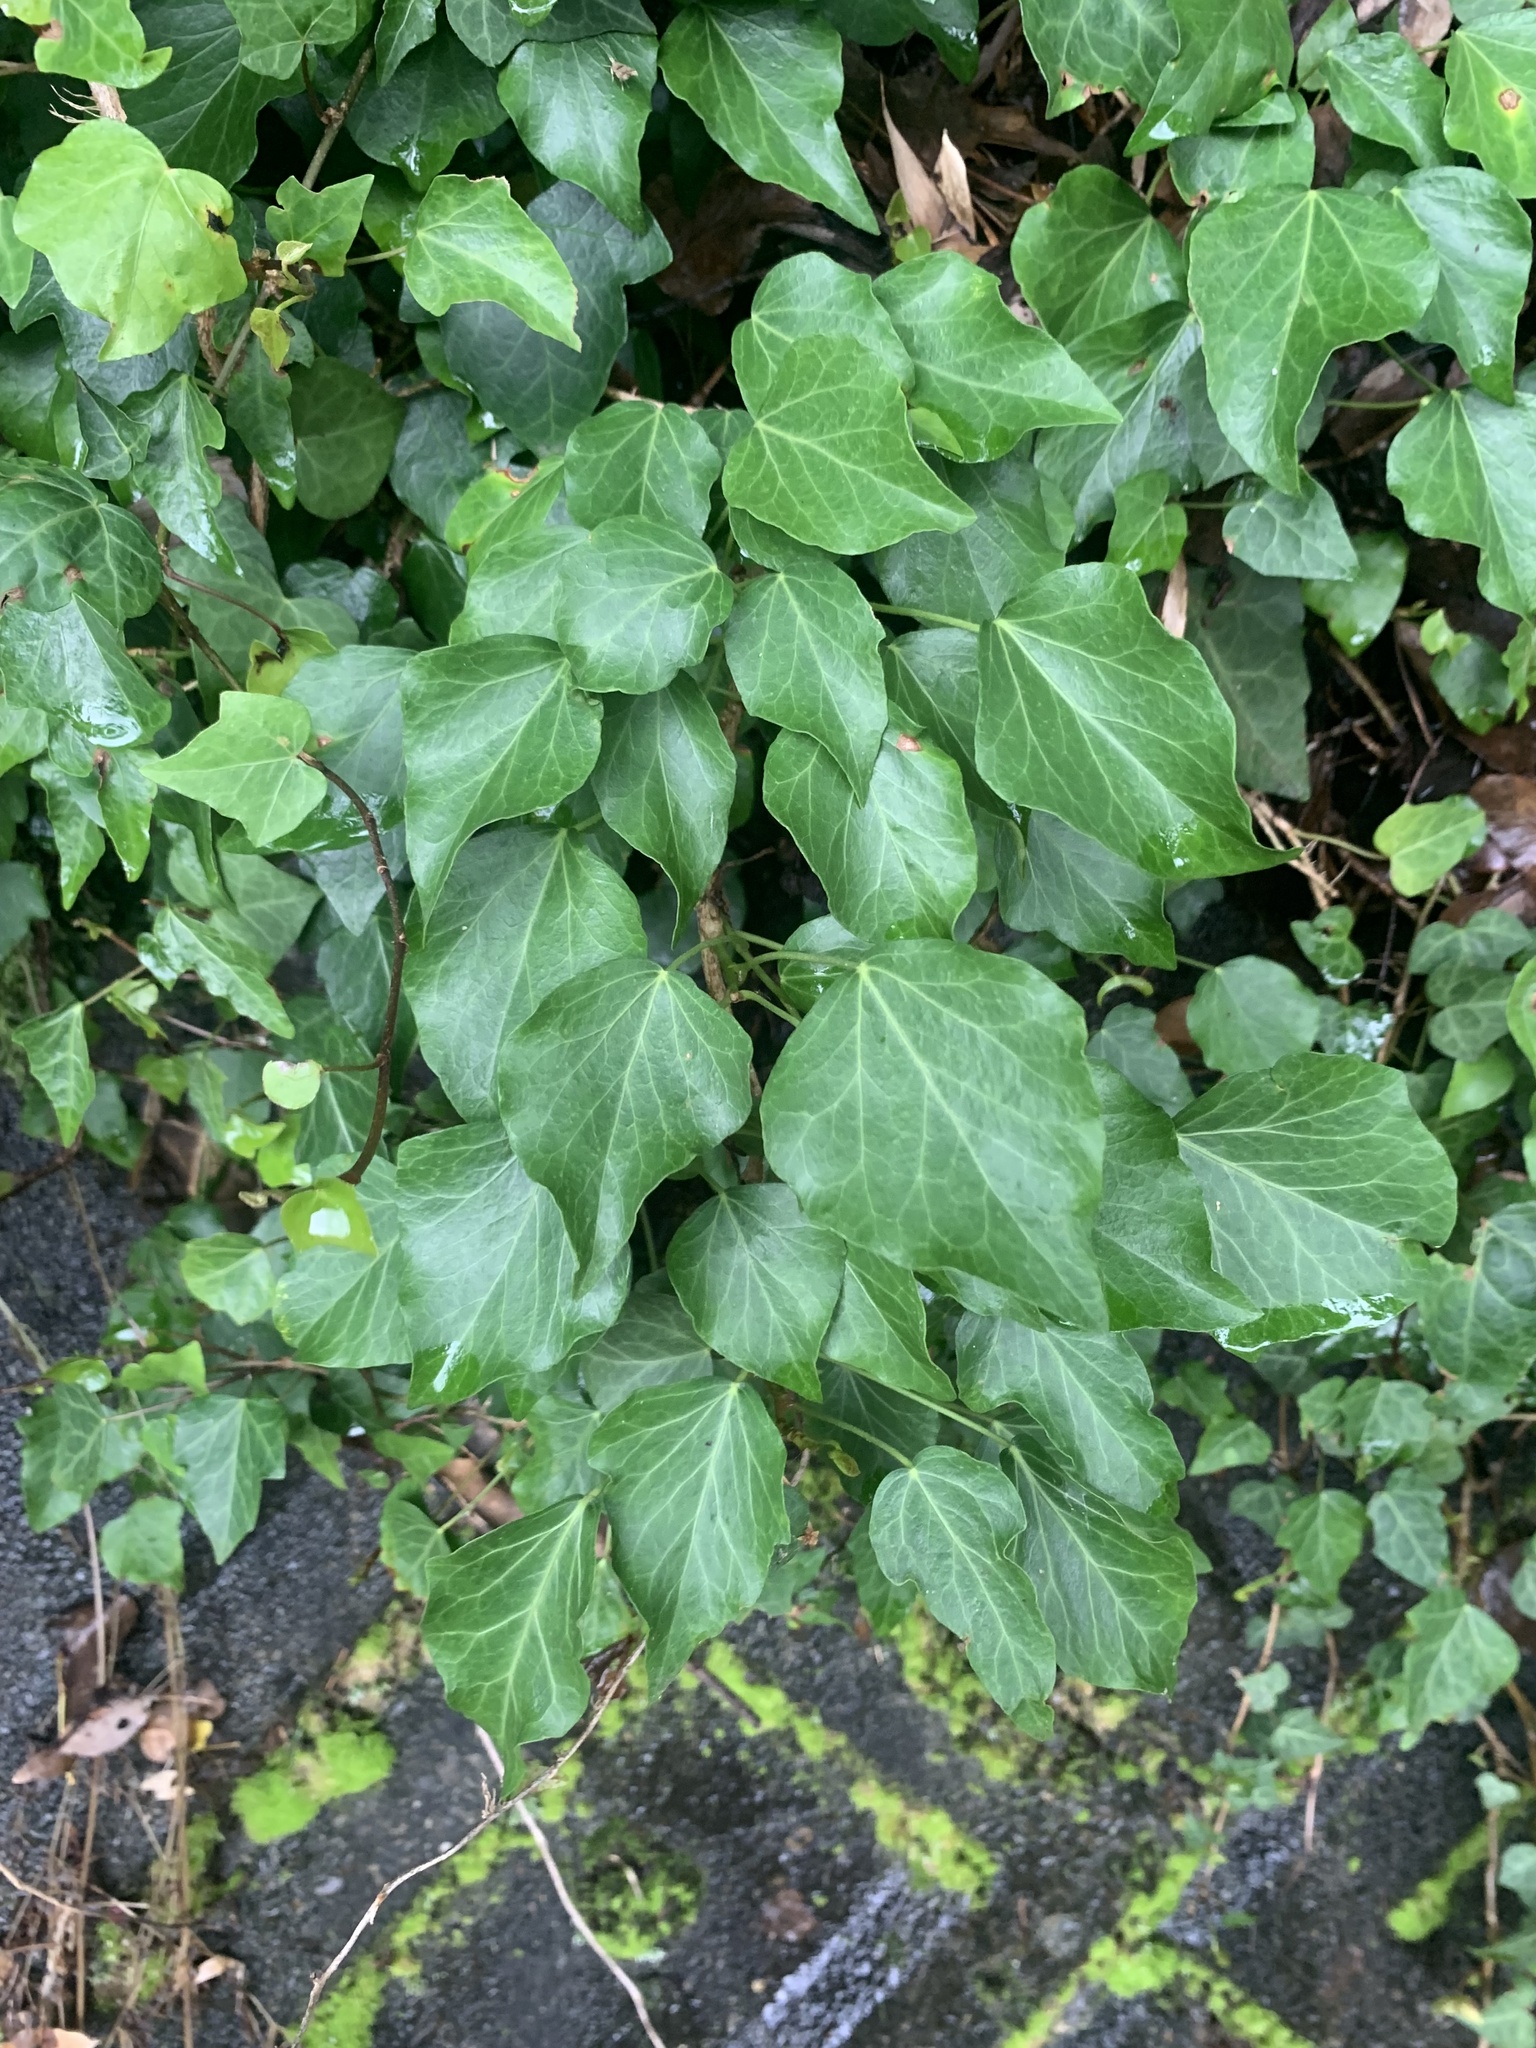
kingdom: Plantae
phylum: Tracheophyta
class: Magnoliopsida
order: Apiales
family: Araliaceae
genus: Hedera
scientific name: Hedera rhombea
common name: Japanese ivy
